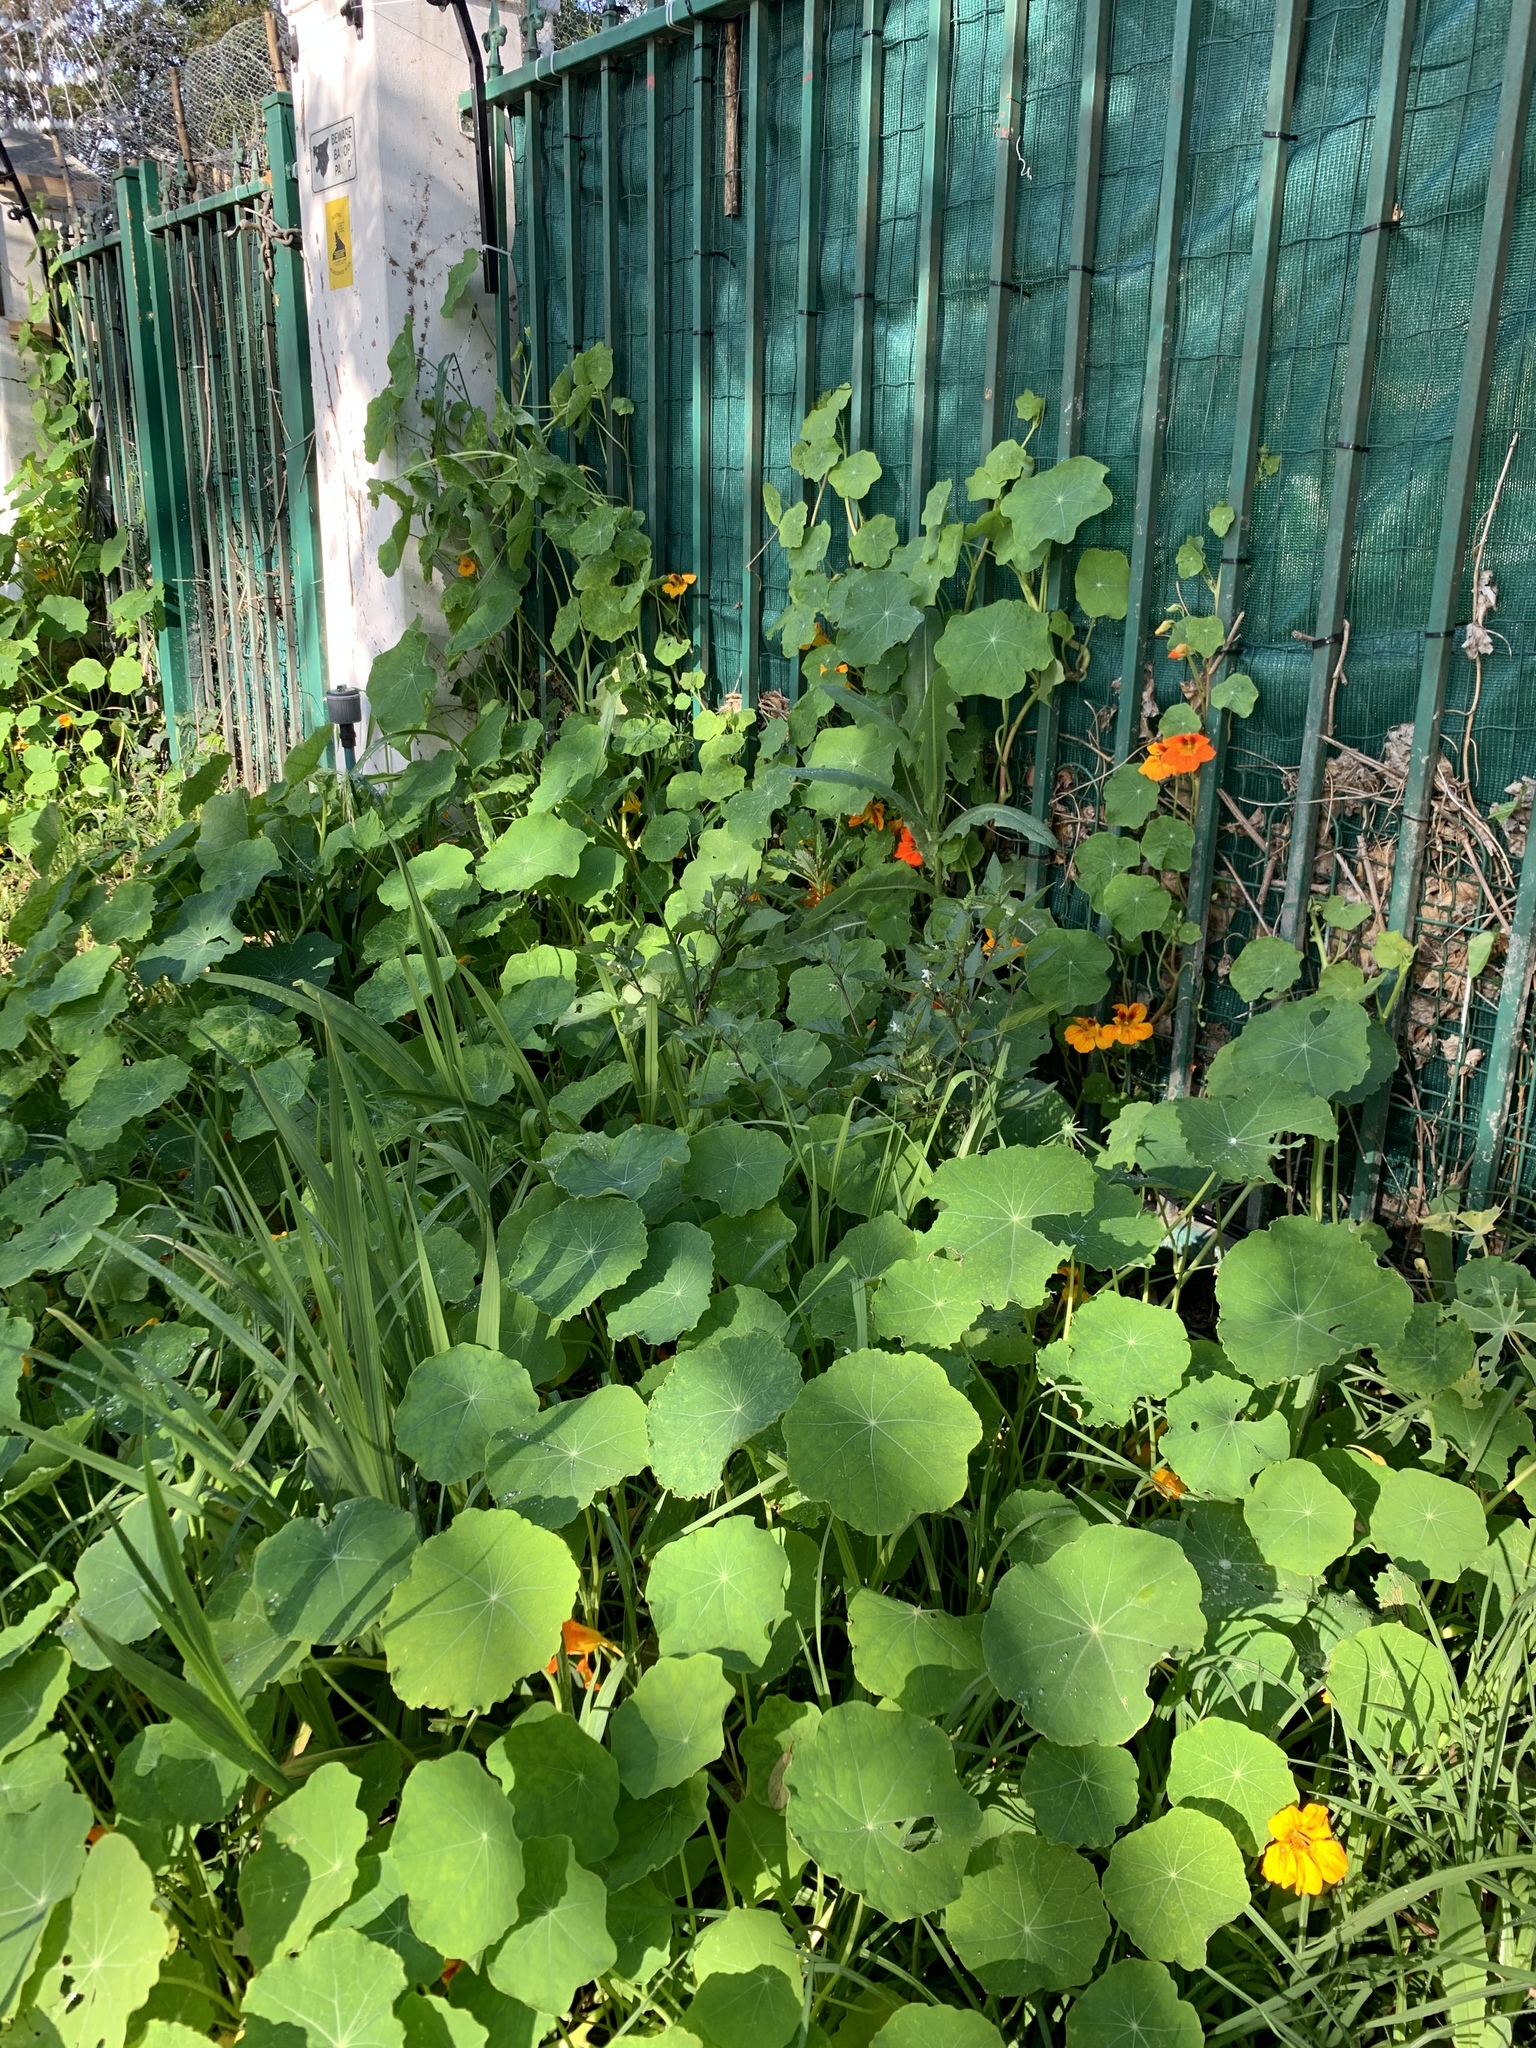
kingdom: Plantae
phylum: Tracheophyta
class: Magnoliopsida
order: Brassicales
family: Tropaeolaceae
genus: Tropaeolum
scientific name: Tropaeolum majus
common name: Nasturtium
